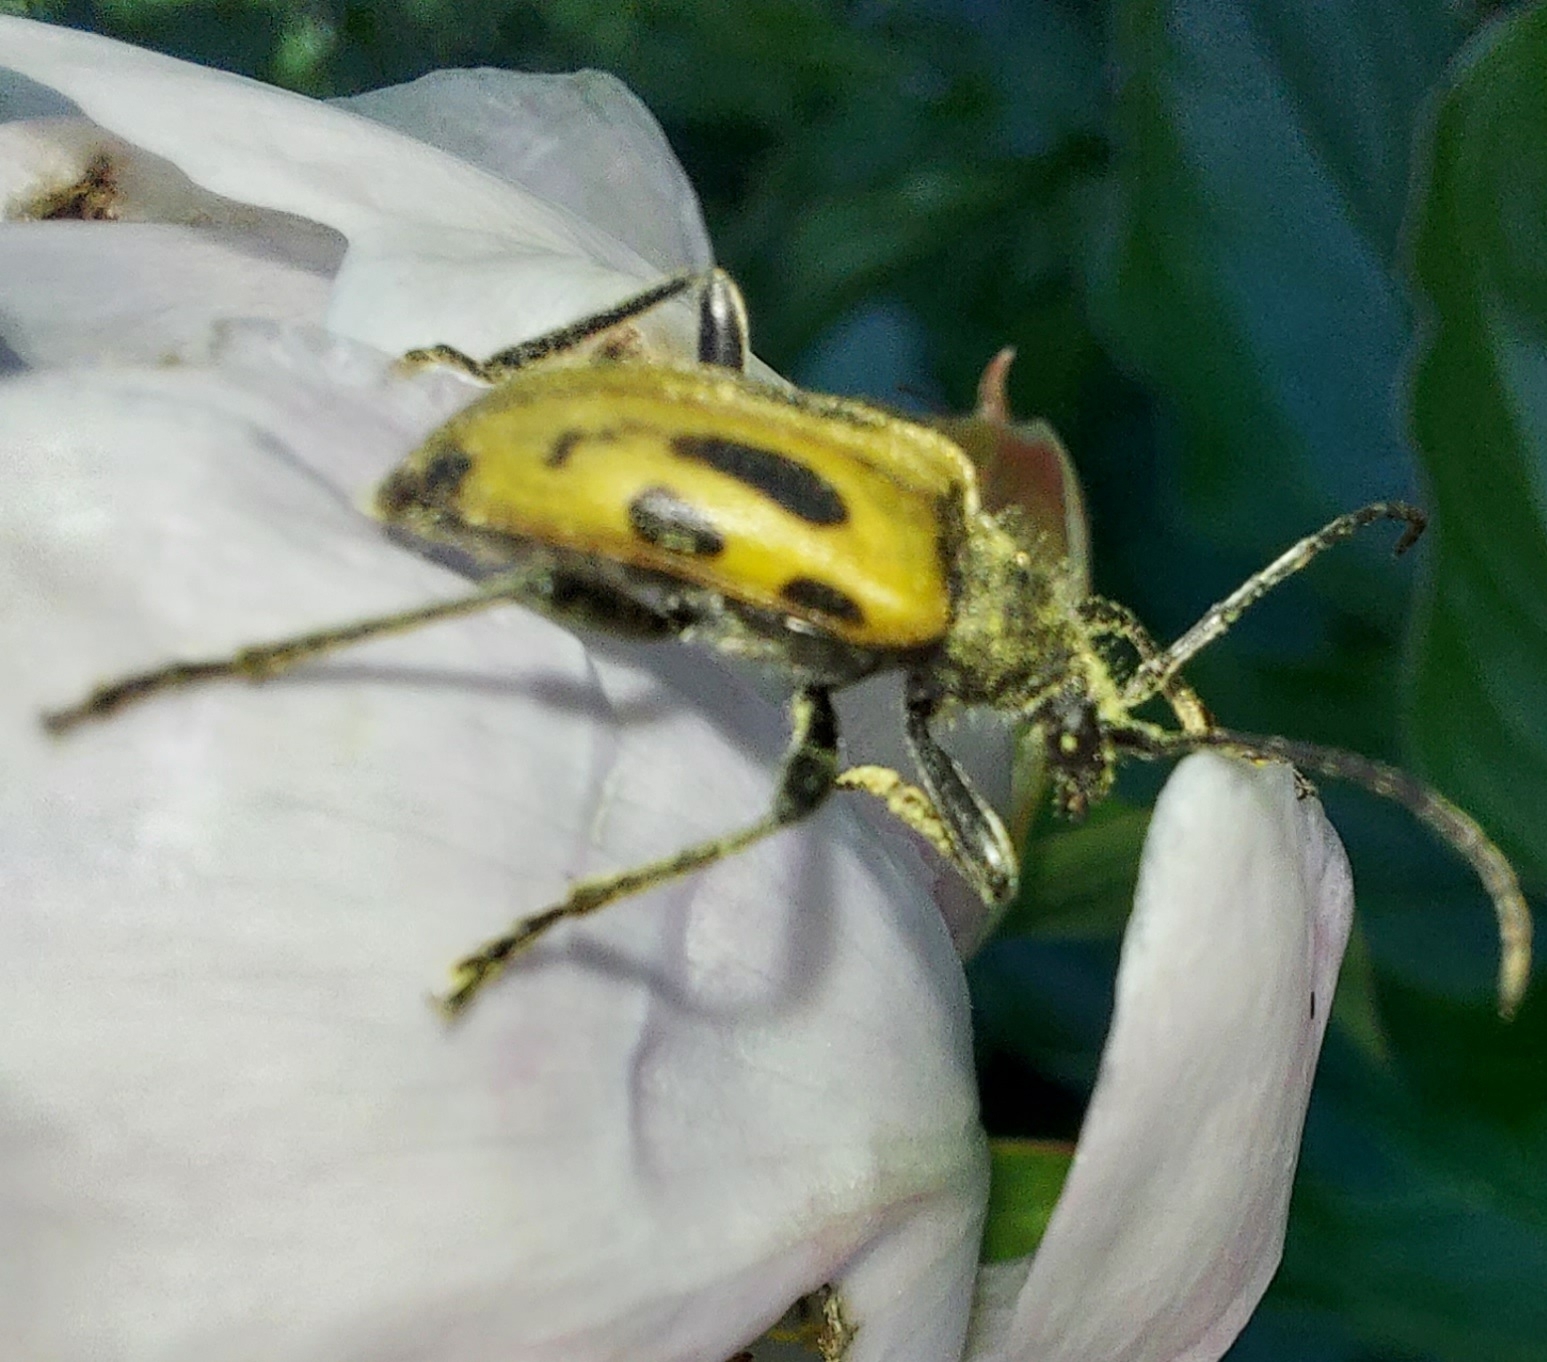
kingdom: Animalia
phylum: Arthropoda
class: Insecta
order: Coleoptera
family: Cerambycidae
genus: Brachyta
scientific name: Brachyta interrogationis
